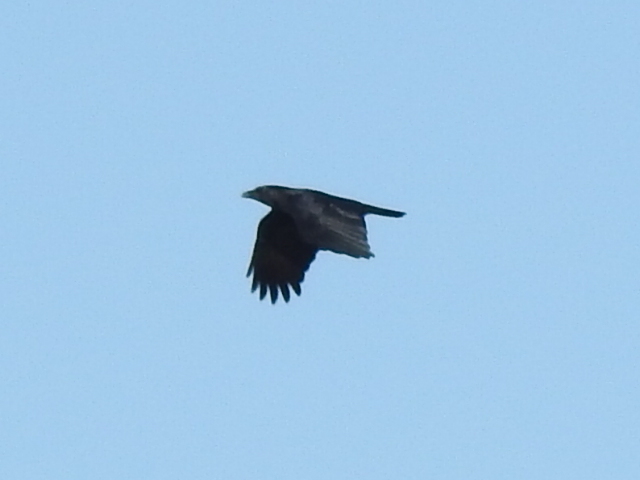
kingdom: Animalia
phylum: Chordata
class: Aves
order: Passeriformes
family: Corvidae
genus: Corvus
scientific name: Corvus brachyrhynchos
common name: American crow
